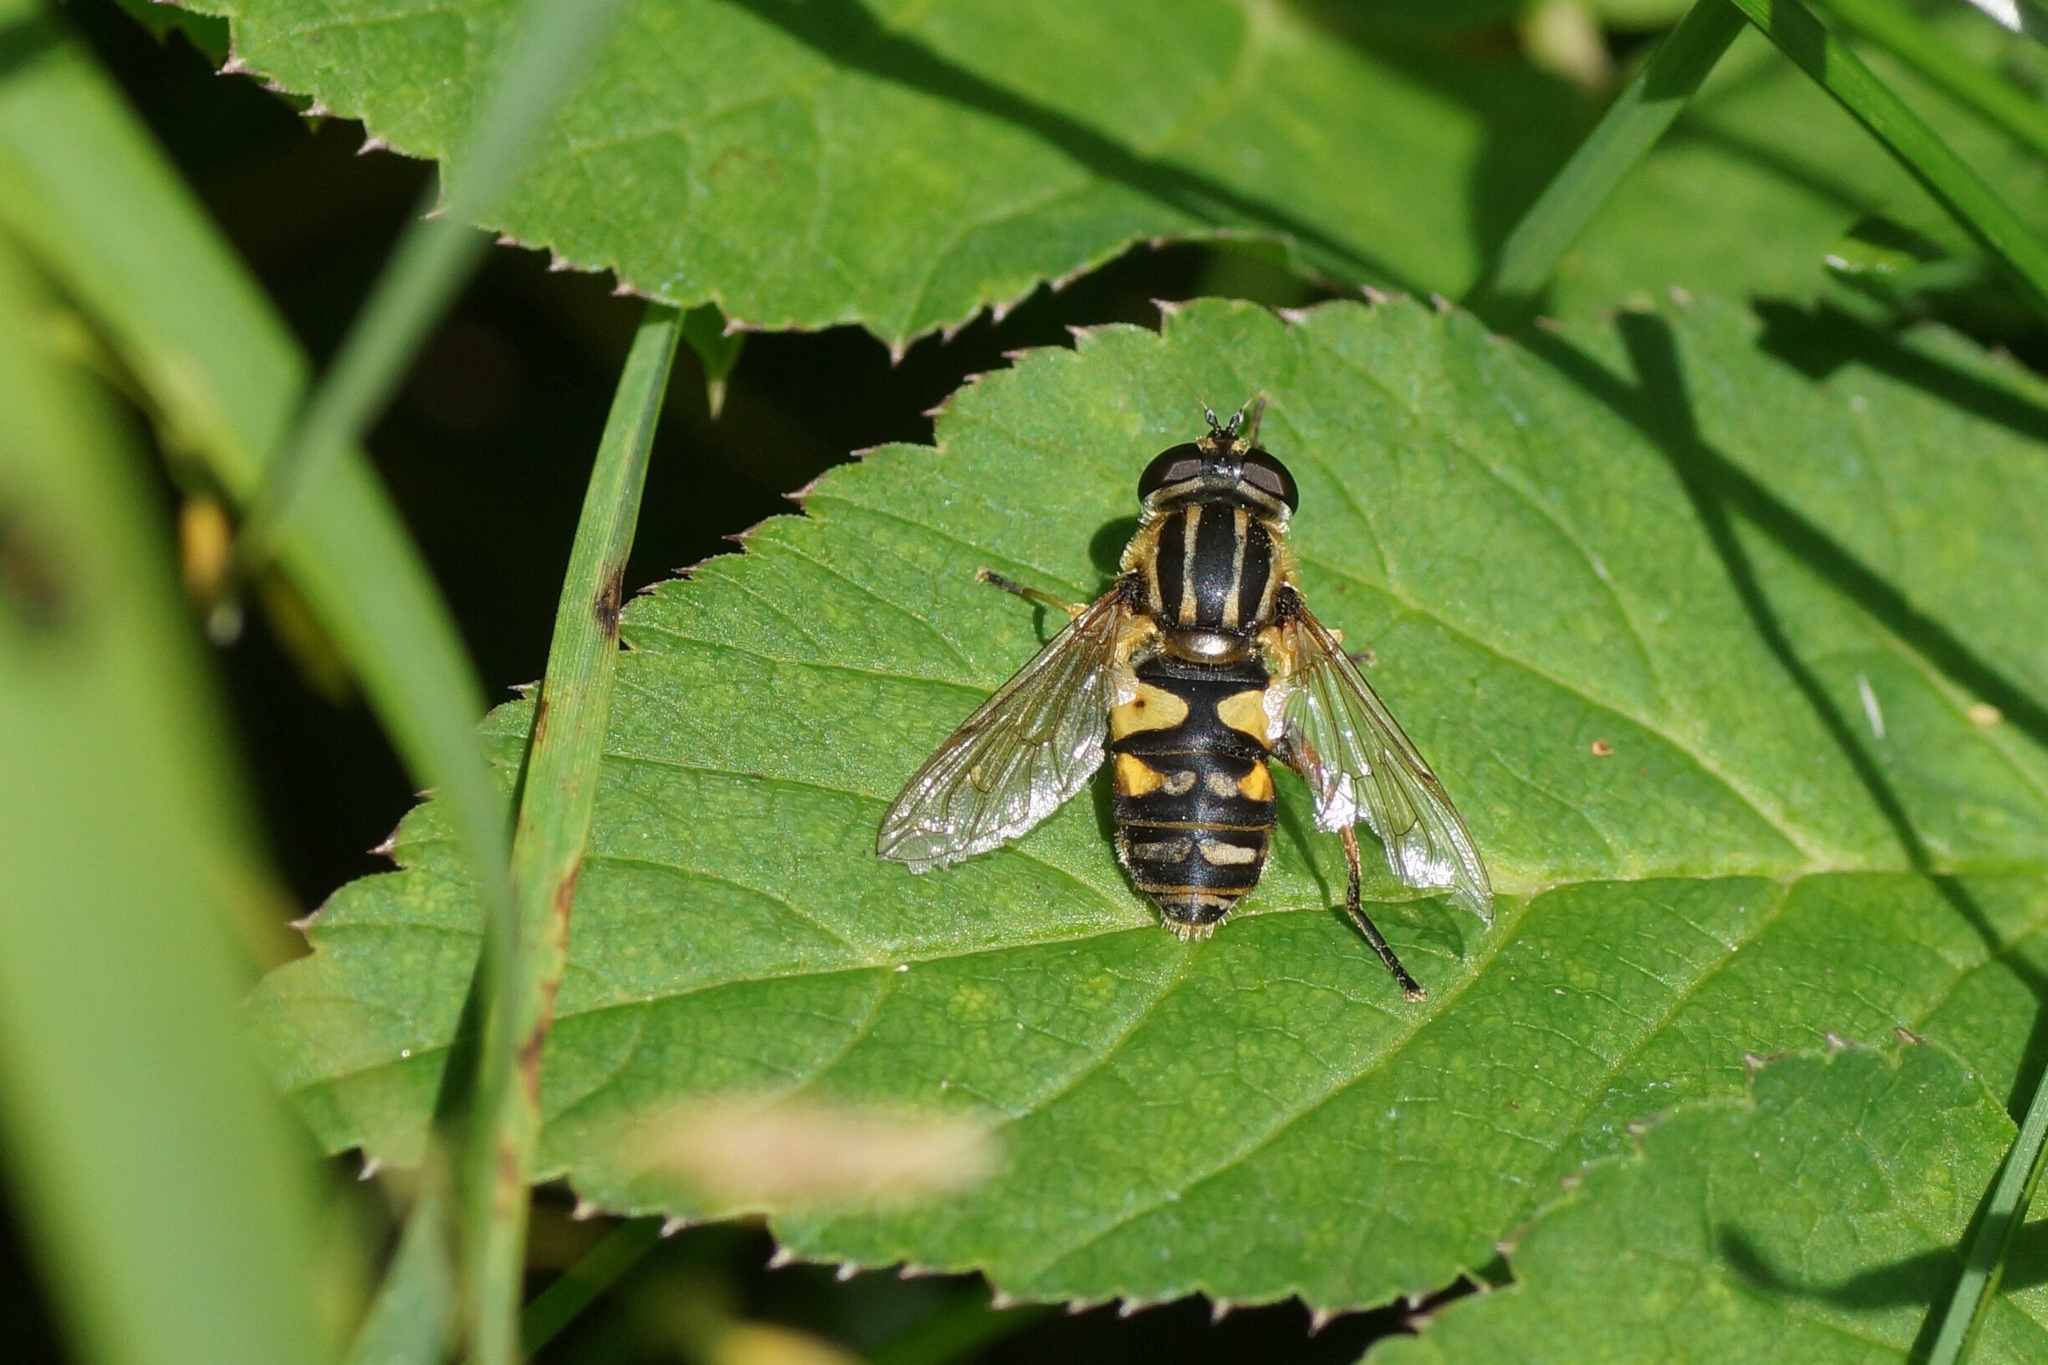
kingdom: Animalia
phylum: Arthropoda
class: Insecta
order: Diptera
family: Syrphidae
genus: Helophilus
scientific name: Helophilus pendulus
